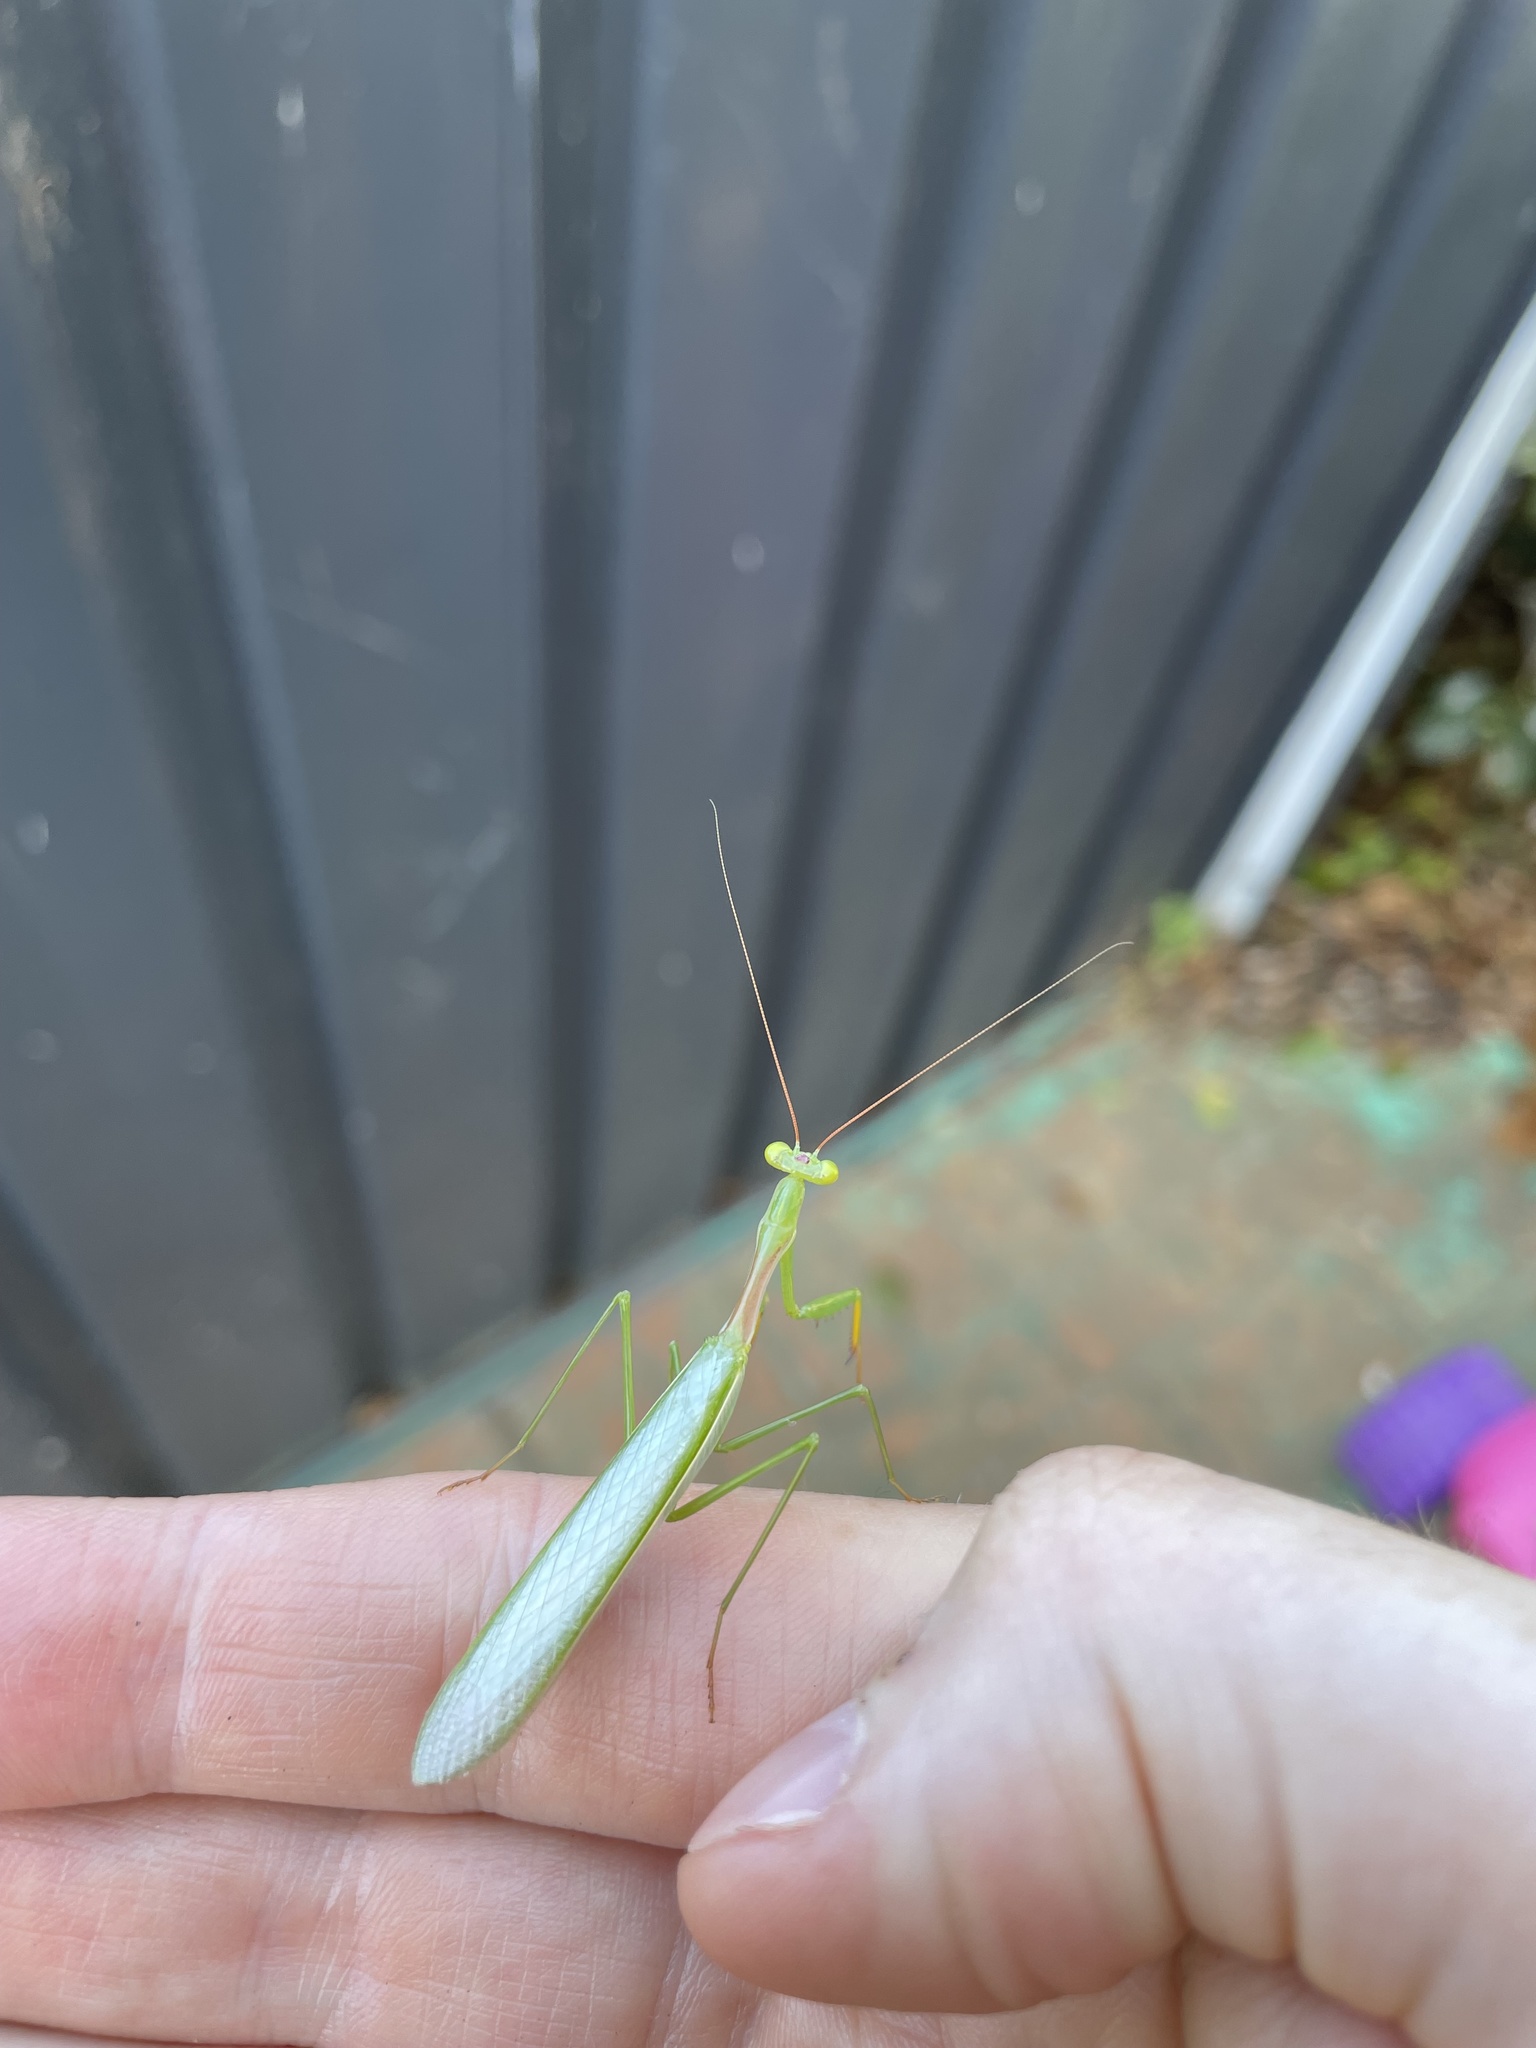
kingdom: Animalia
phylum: Arthropoda
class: Insecta
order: Mantodea
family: Miomantidae
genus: Miomantis
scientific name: Miomantis caffra
